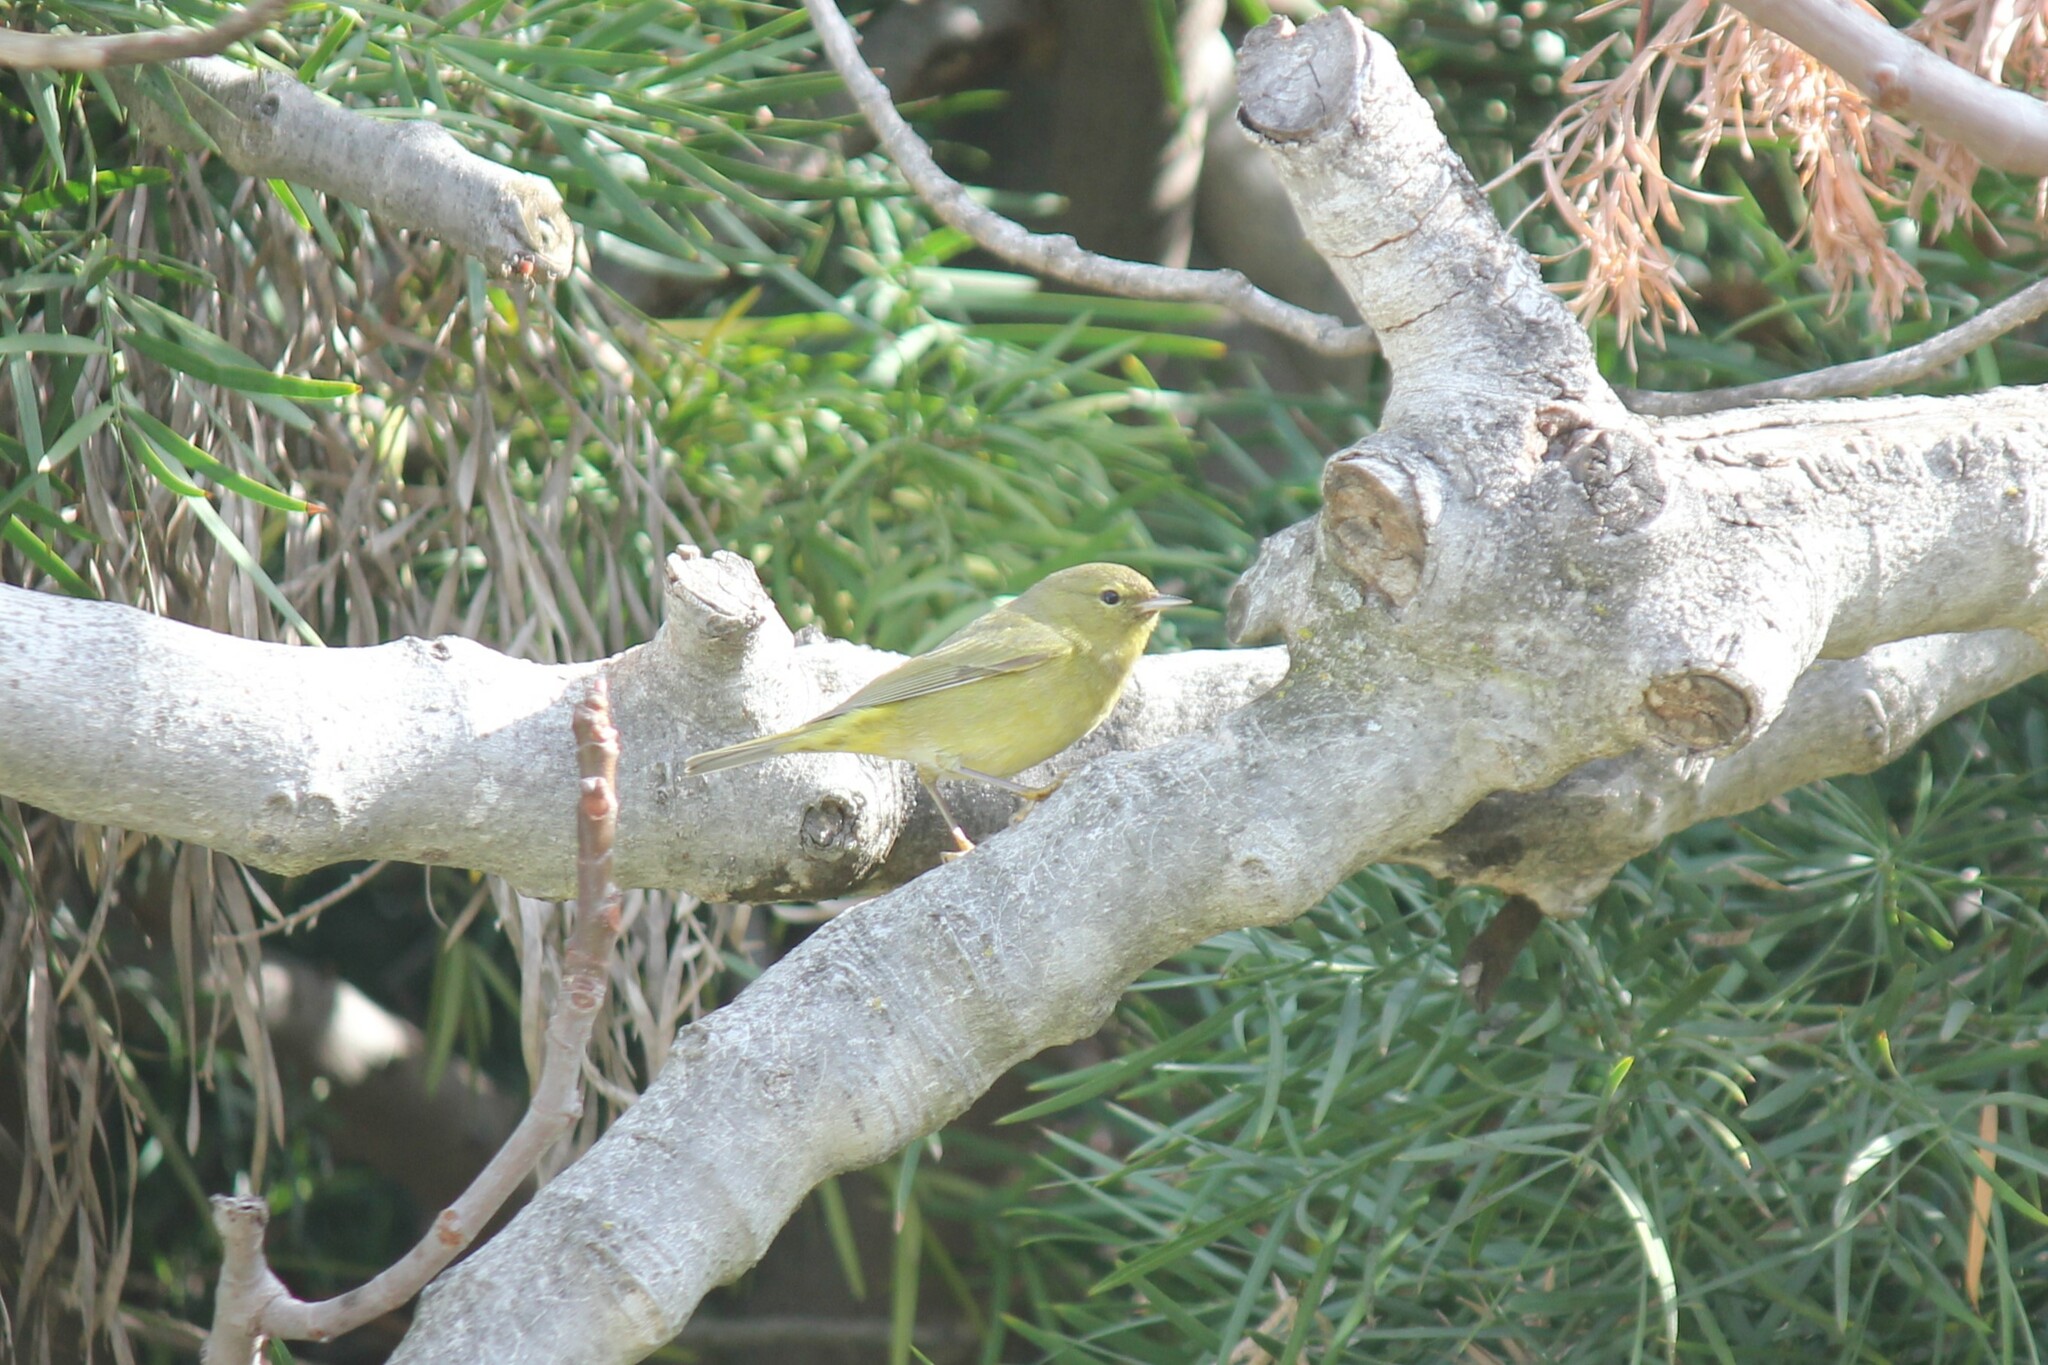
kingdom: Animalia
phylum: Chordata
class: Aves
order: Passeriformes
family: Parulidae
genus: Leiothlypis
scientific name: Leiothlypis celata
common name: Orange-crowned warbler
